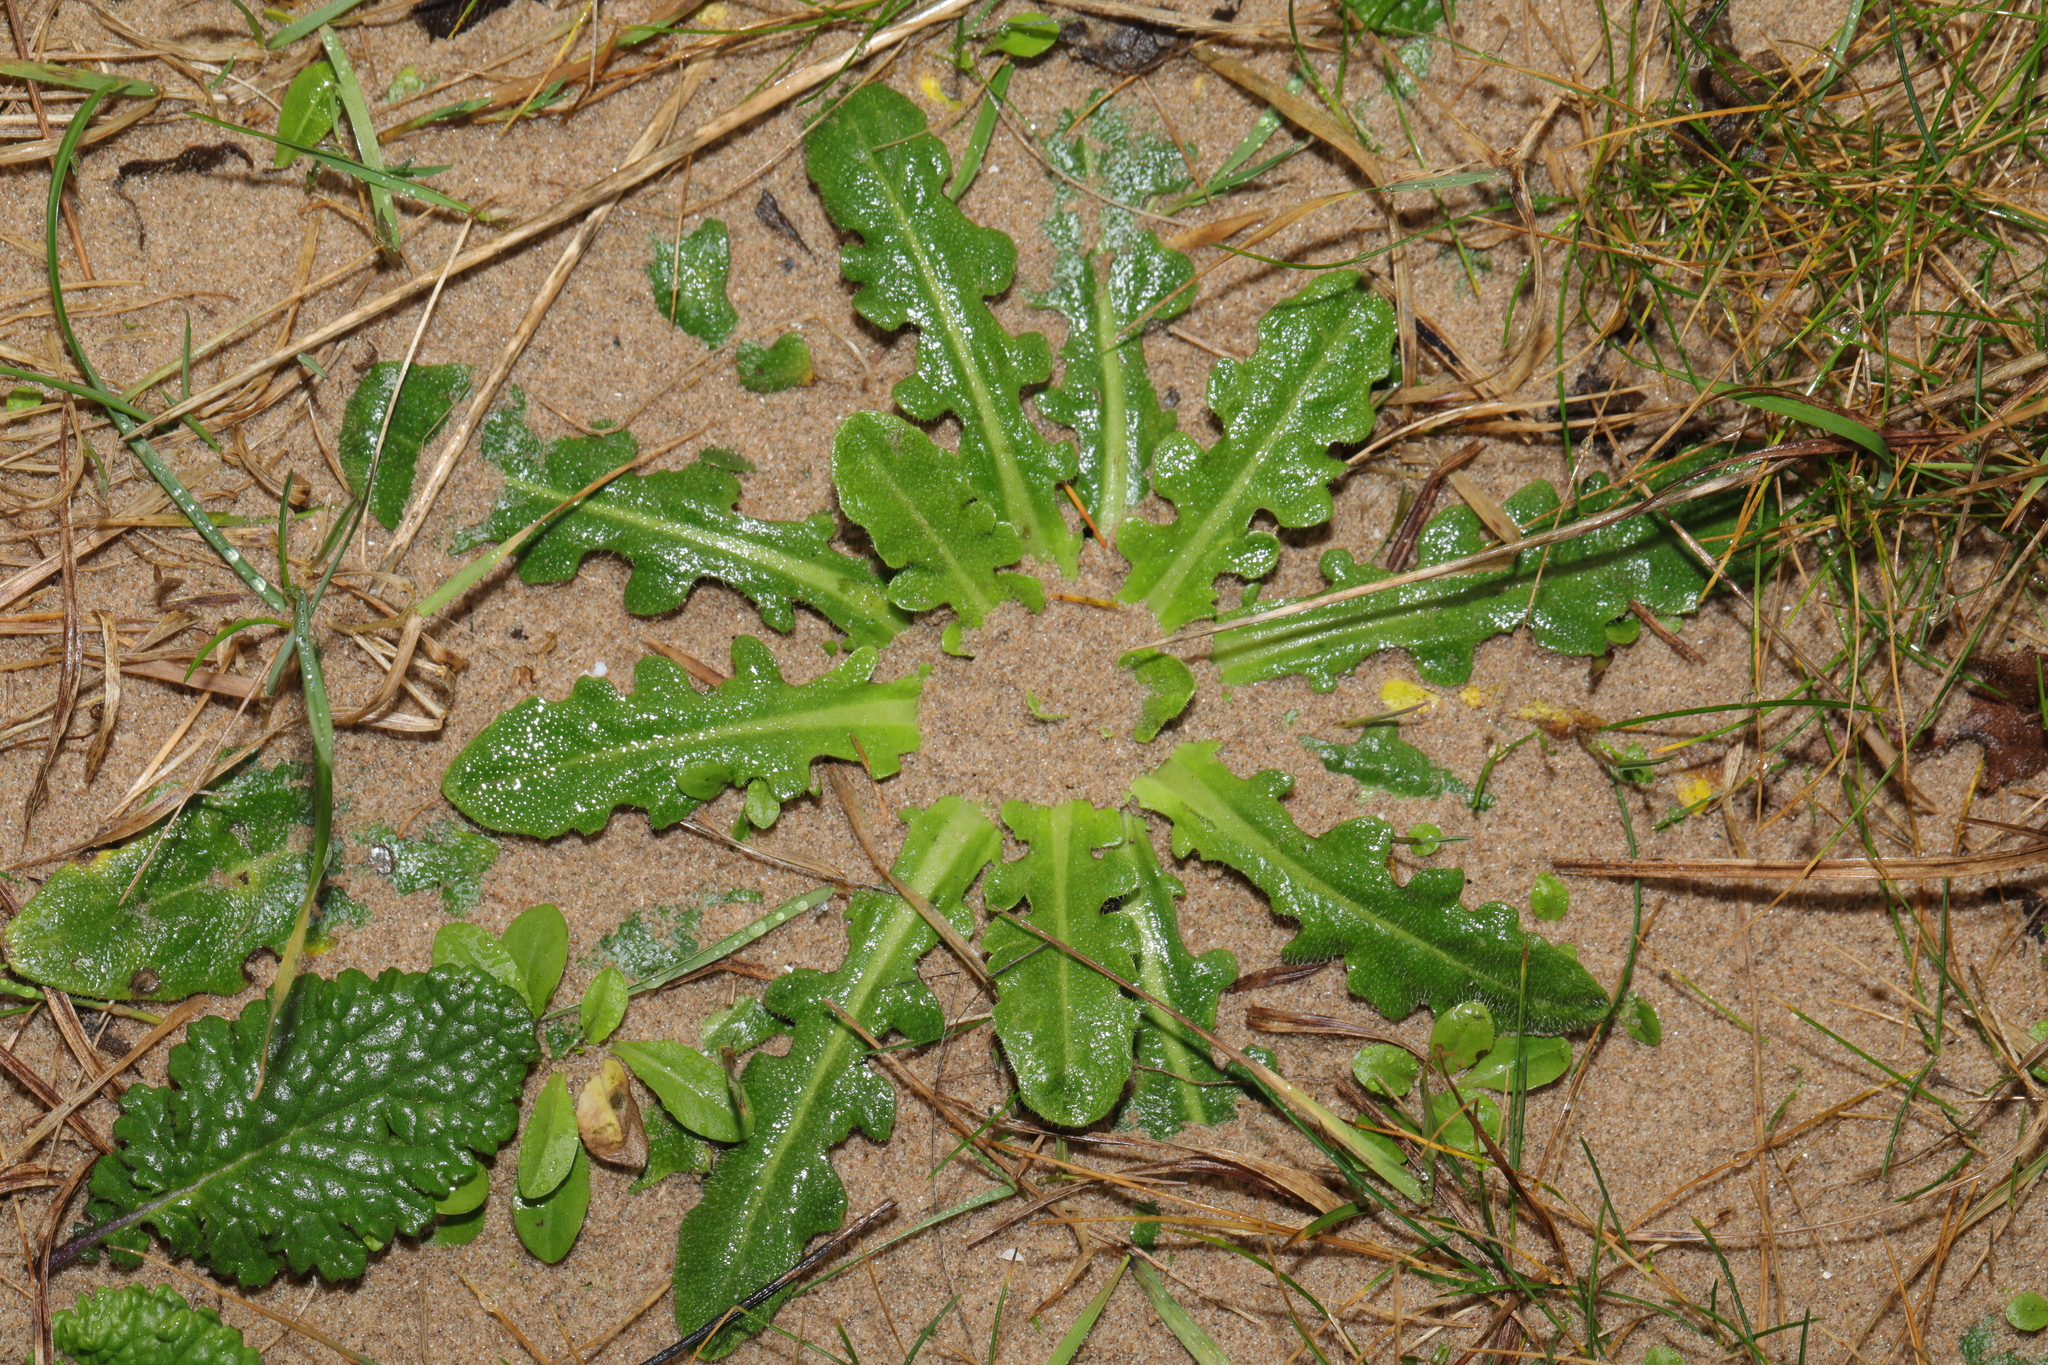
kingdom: Plantae
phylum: Tracheophyta
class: Magnoliopsida
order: Asterales
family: Asteraceae
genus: Hypochaeris
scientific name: Hypochaeris radicata
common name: Flatweed
